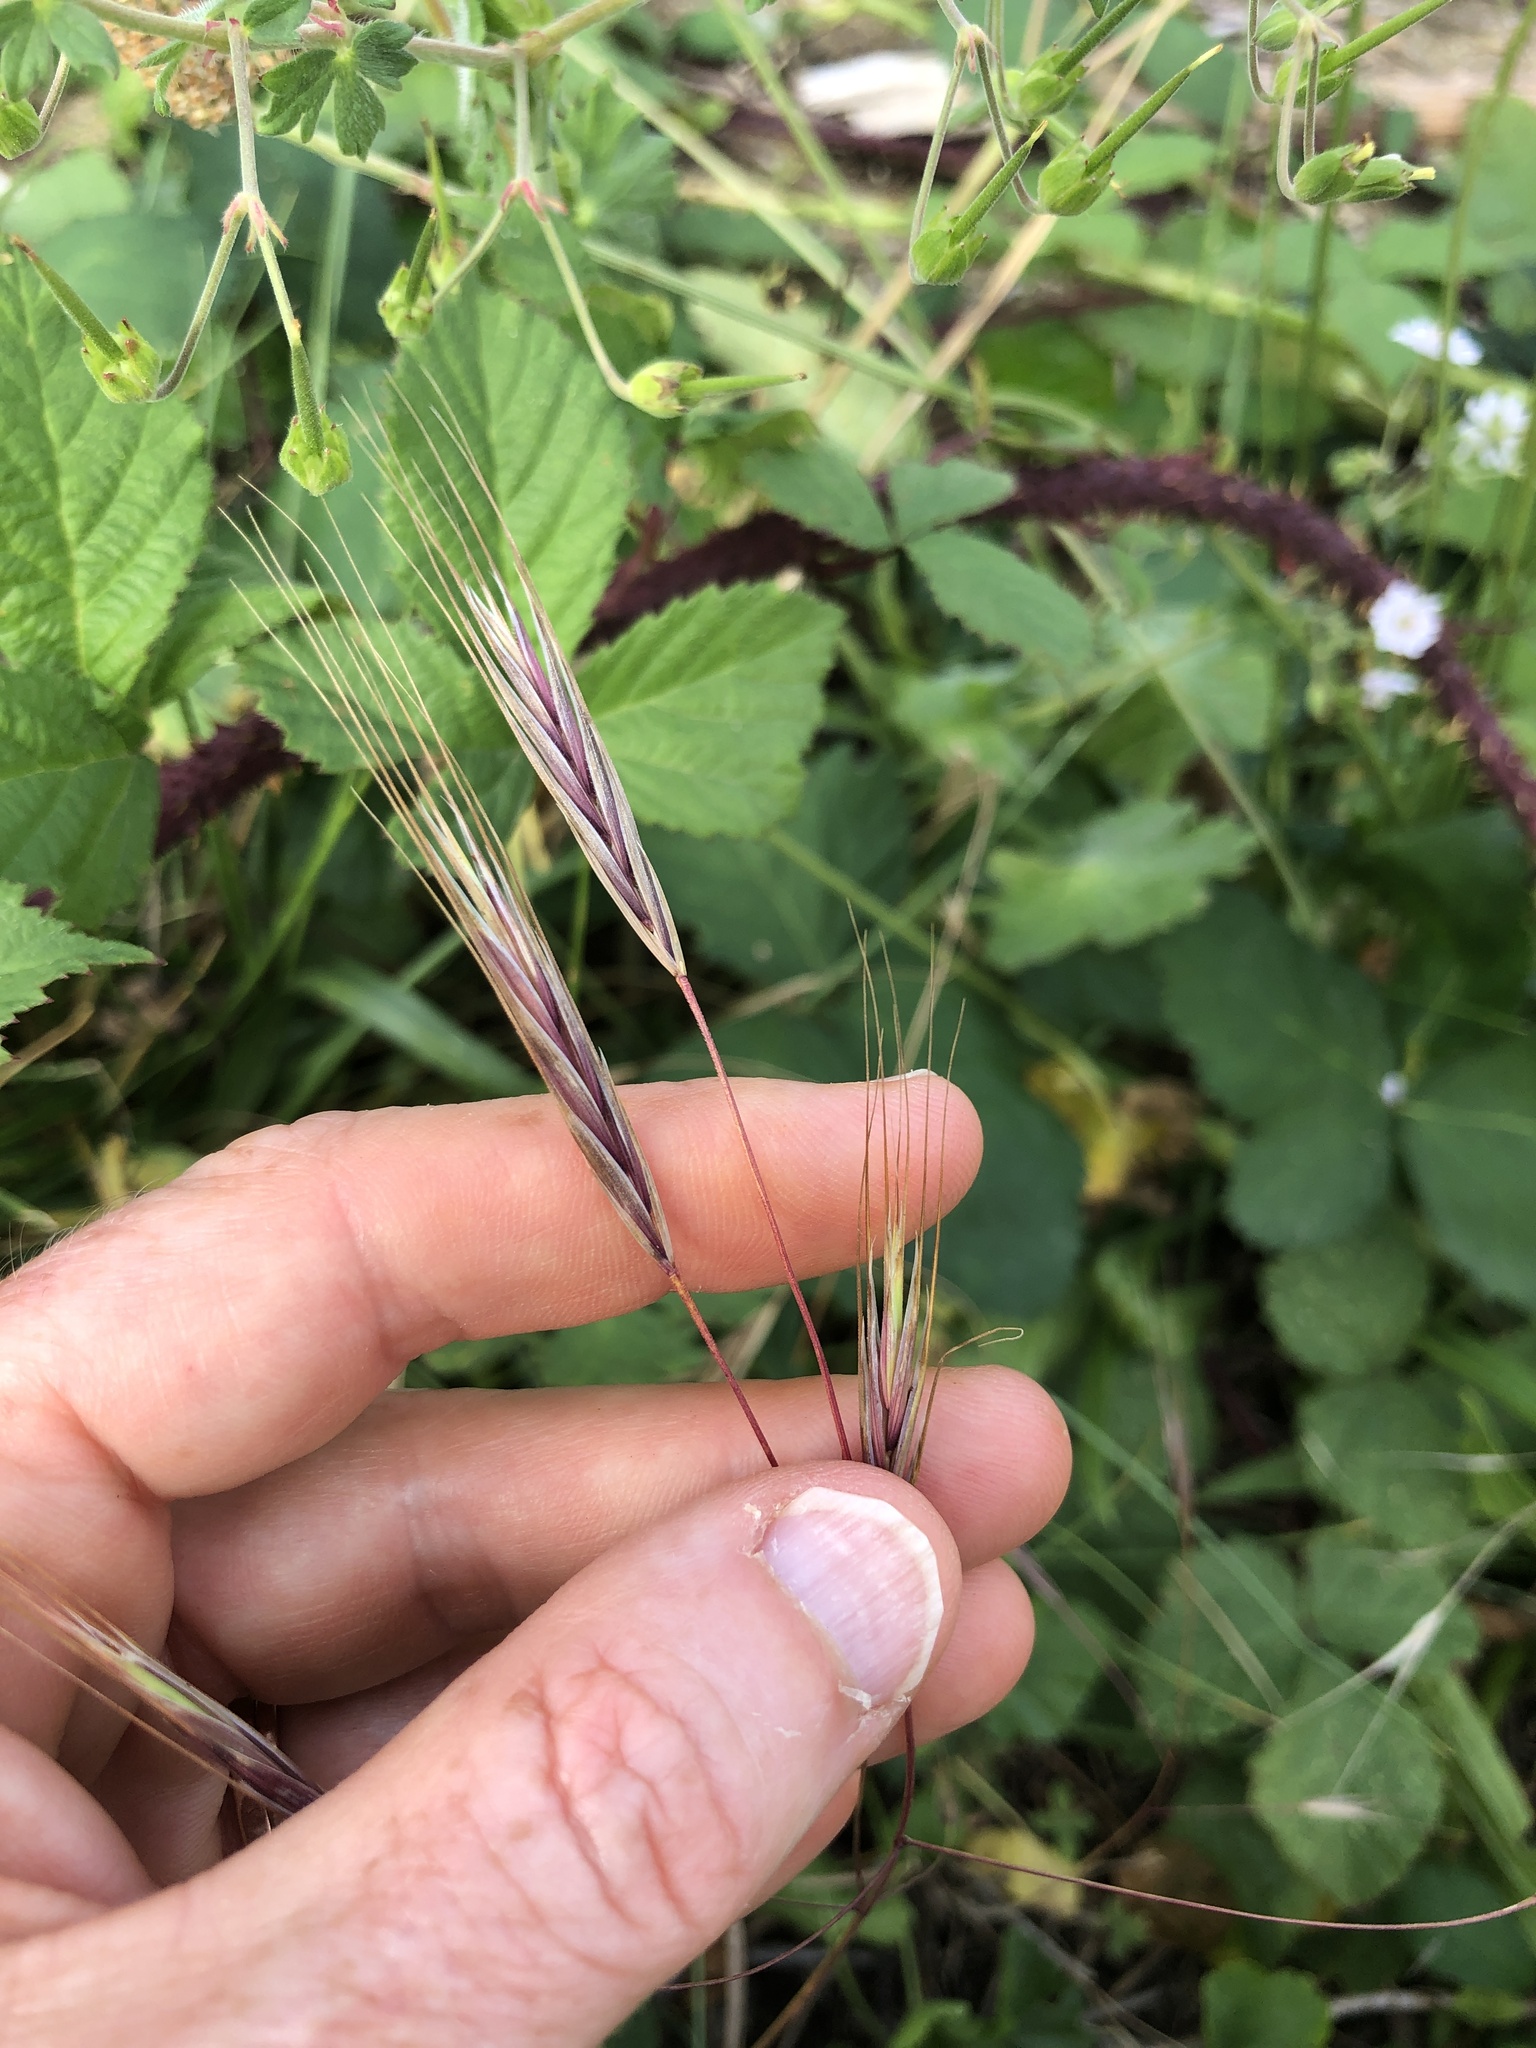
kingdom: Plantae
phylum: Tracheophyta
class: Liliopsida
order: Poales
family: Poaceae
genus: Bromus
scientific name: Bromus sterilis
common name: Poverty brome
